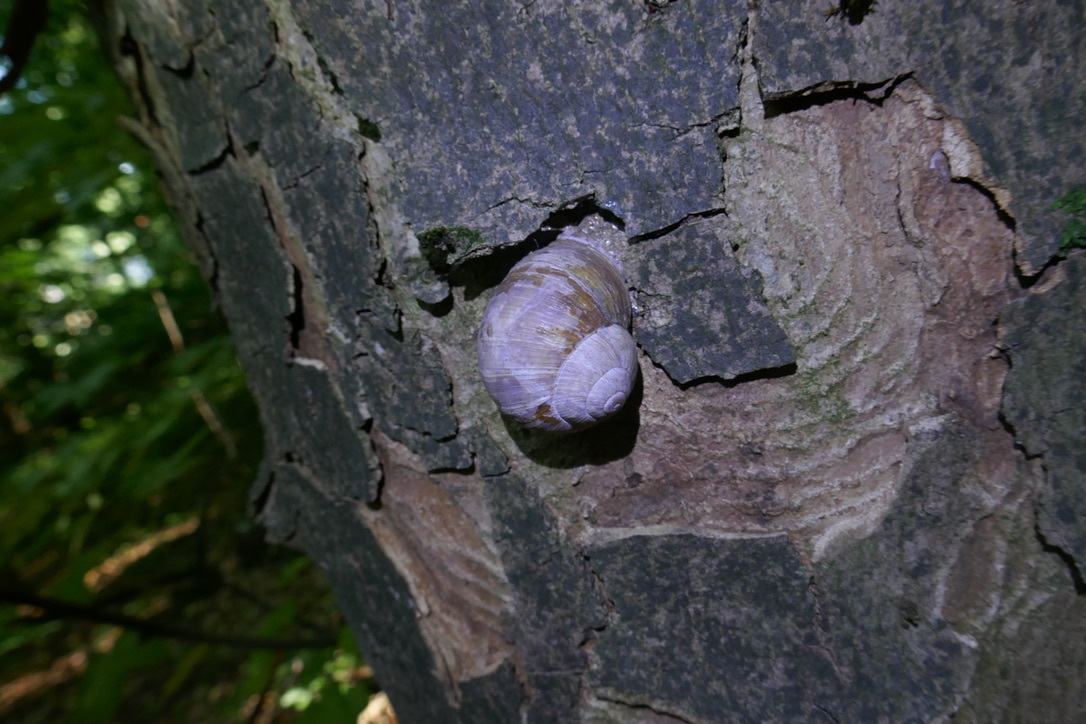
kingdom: Animalia
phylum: Mollusca
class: Gastropoda
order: Stylommatophora
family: Helicidae
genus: Helix
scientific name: Helix pomatia
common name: Roman snail
